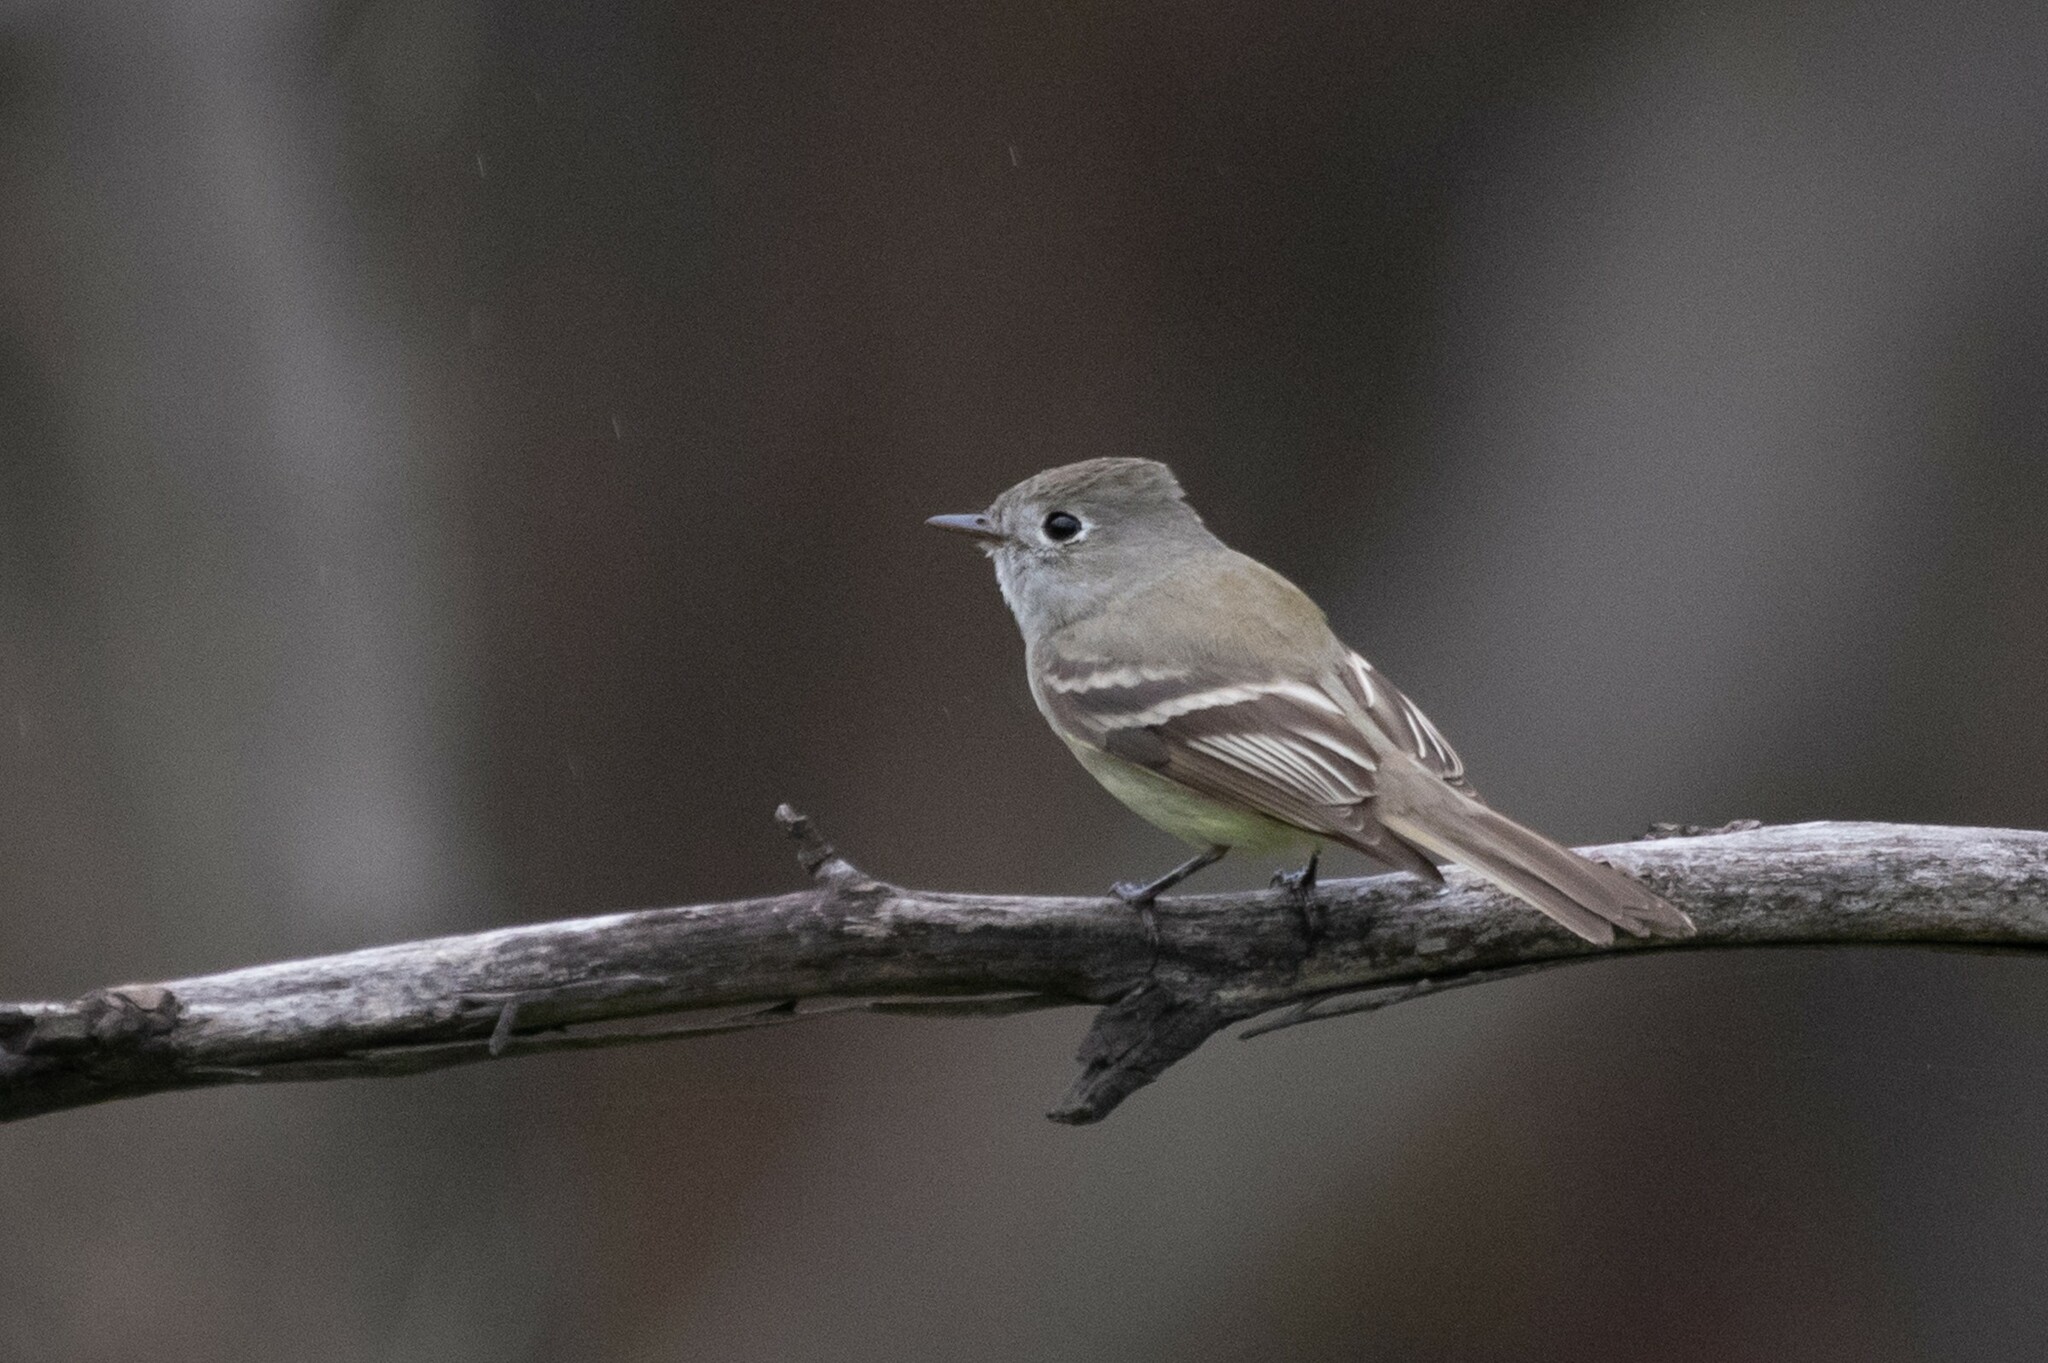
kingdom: Animalia
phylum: Chordata
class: Aves
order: Passeriformes
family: Tyrannidae
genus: Empidonax
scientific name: Empidonax hammondii
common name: Hammond's flycatcher
